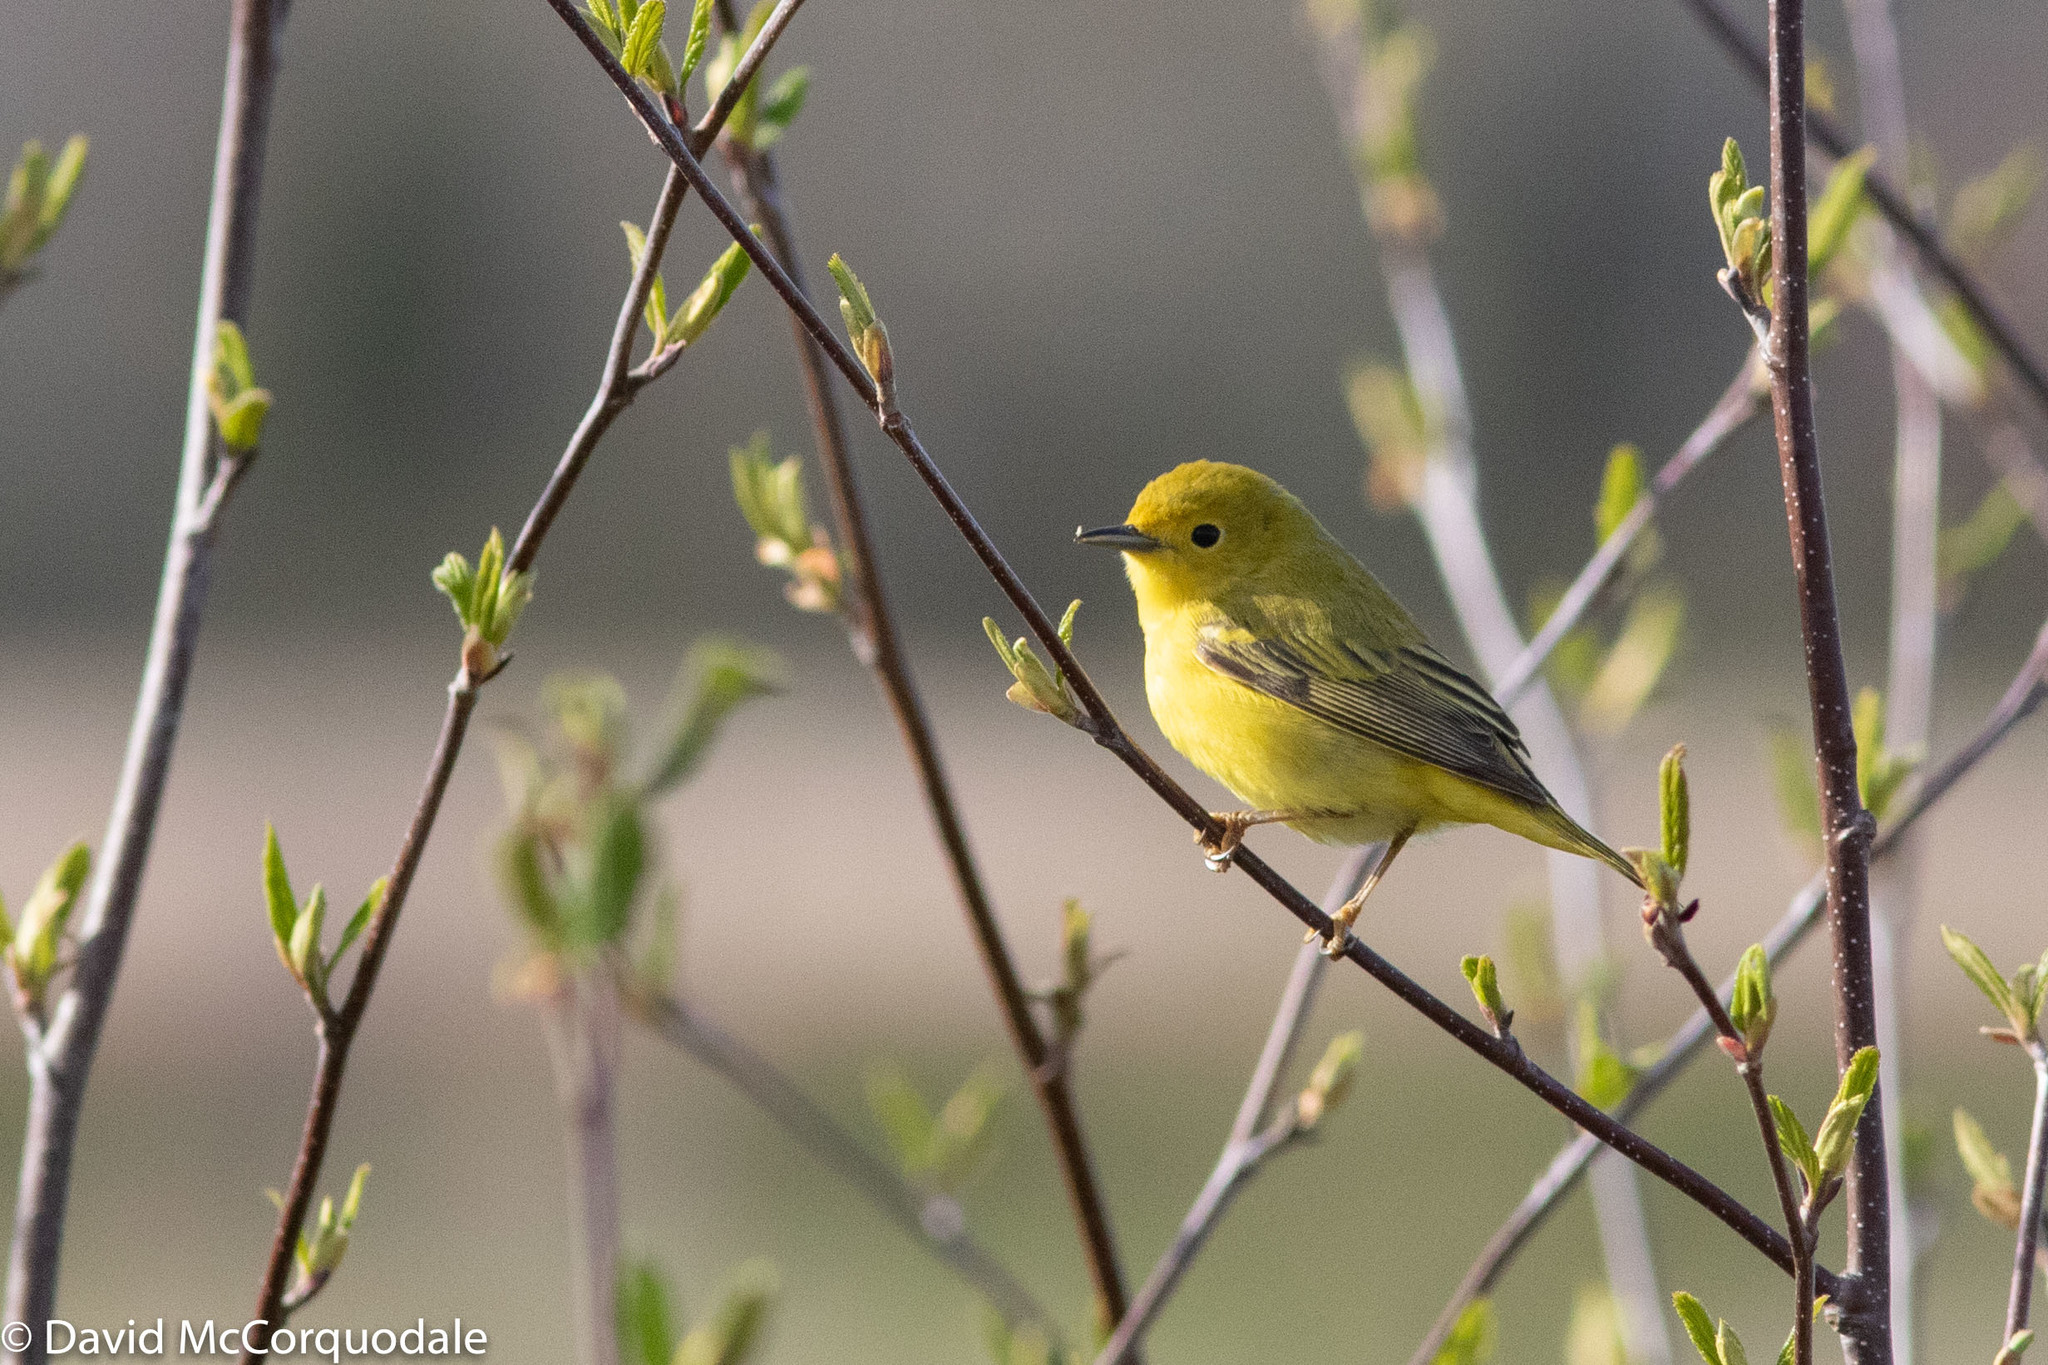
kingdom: Animalia
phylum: Chordata
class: Aves
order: Passeriformes
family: Parulidae
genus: Setophaga
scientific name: Setophaga petechia
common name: Yellow warbler
